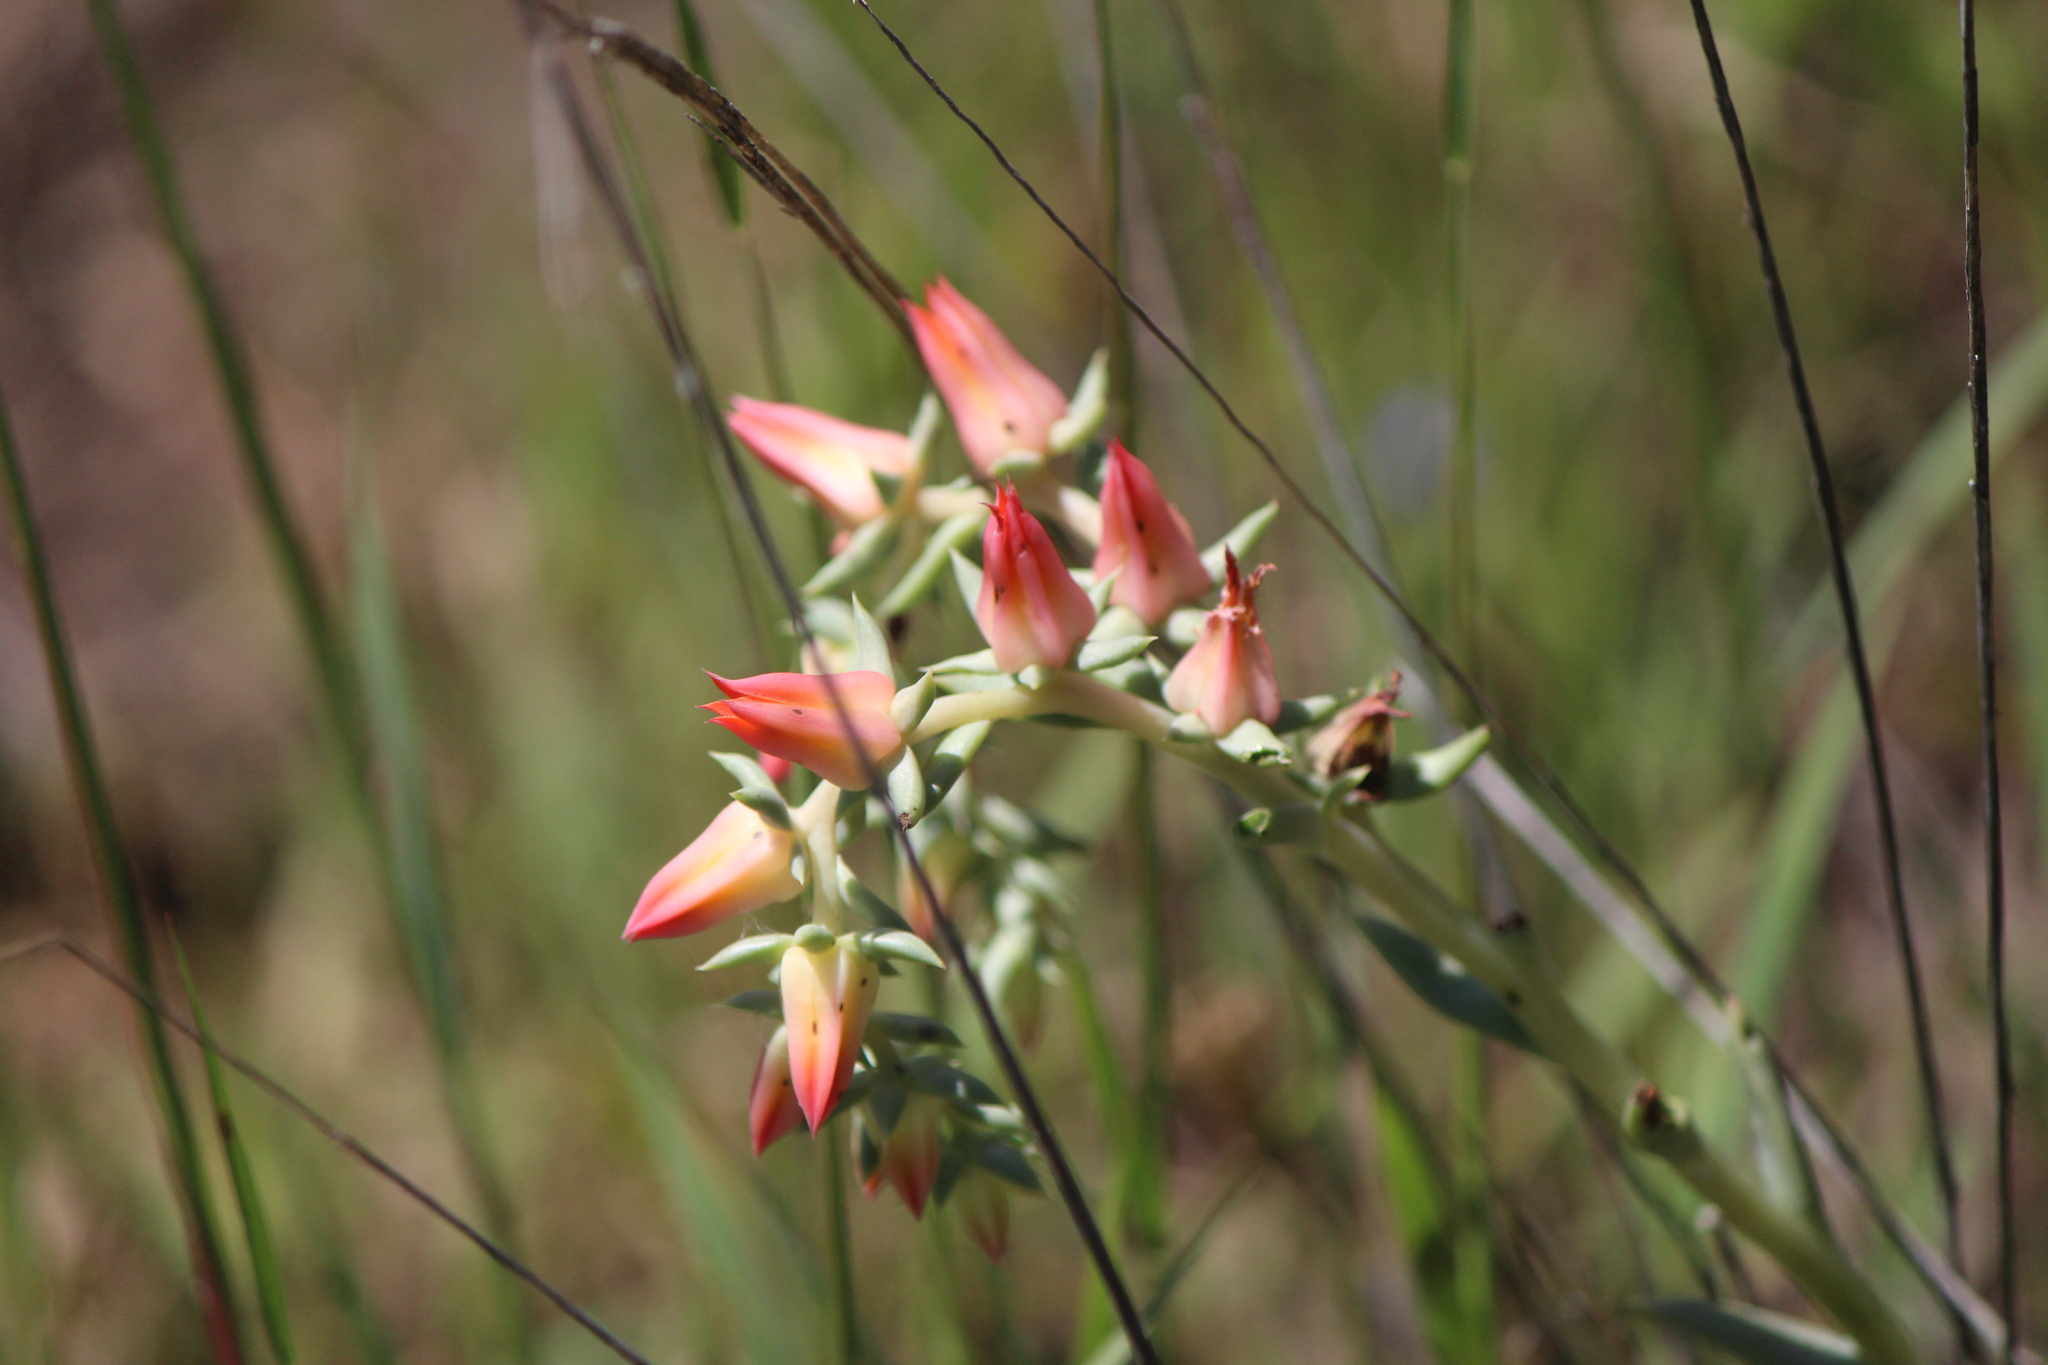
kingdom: Plantae
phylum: Tracheophyta
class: Magnoliopsida
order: Saxifragales
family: Crassulaceae
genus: Echeveria
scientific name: Echeveria bifida
